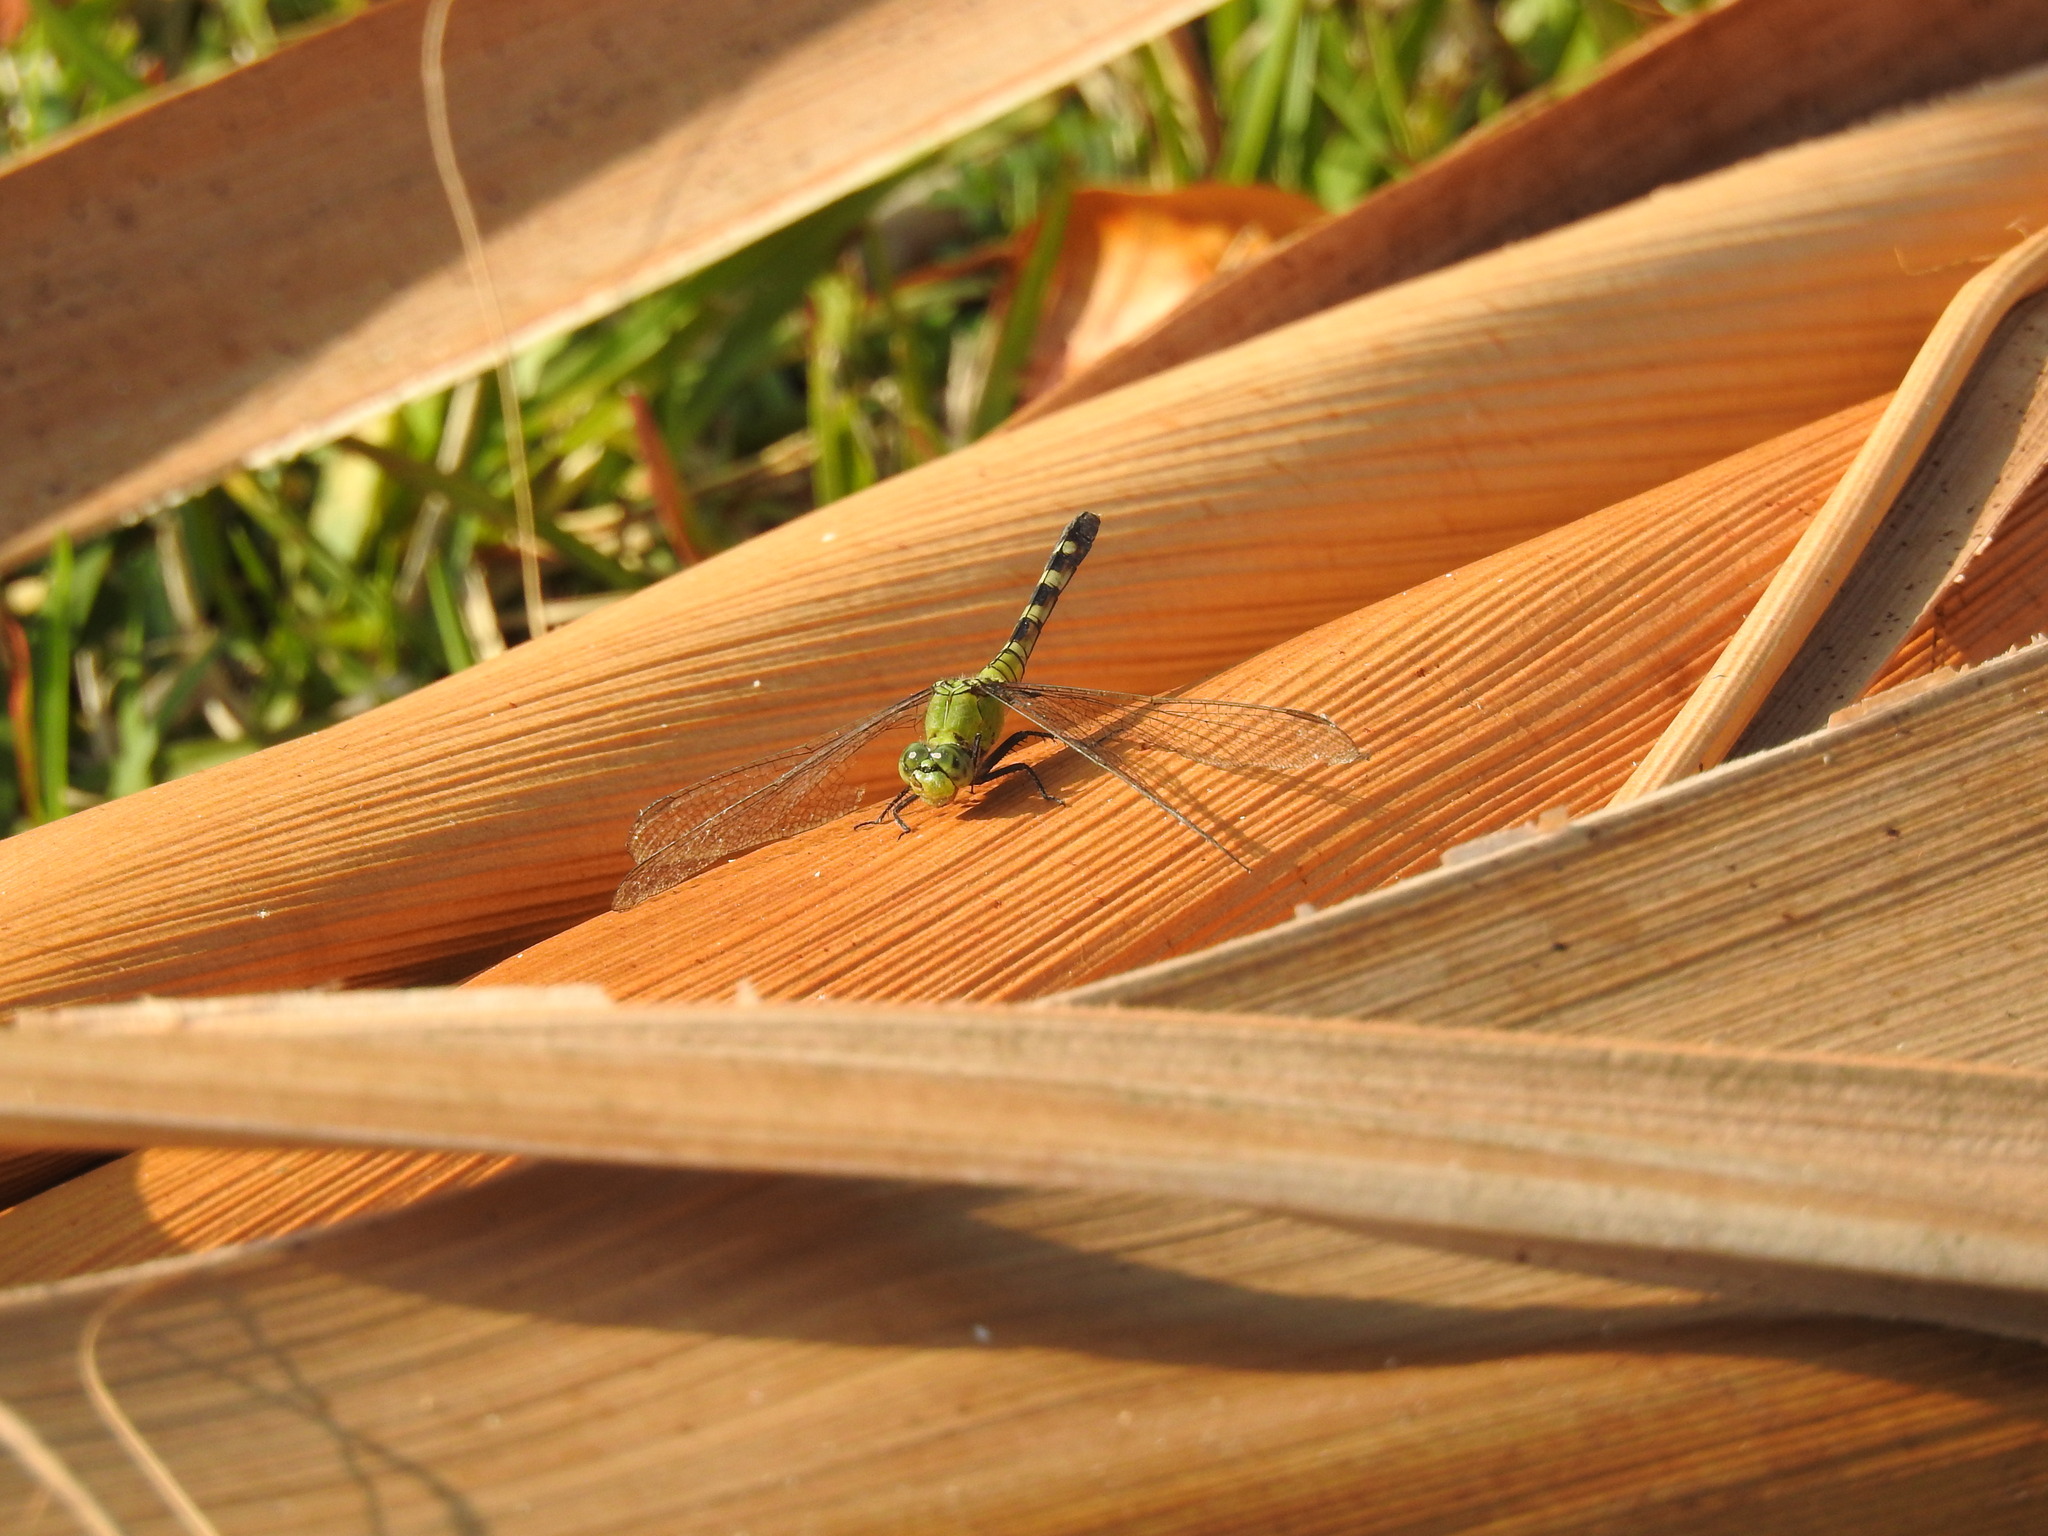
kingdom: Animalia
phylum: Arthropoda
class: Insecta
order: Odonata
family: Libellulidae
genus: Erythemis
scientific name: Erythemis simplicicollis
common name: Eastern pondhawk
